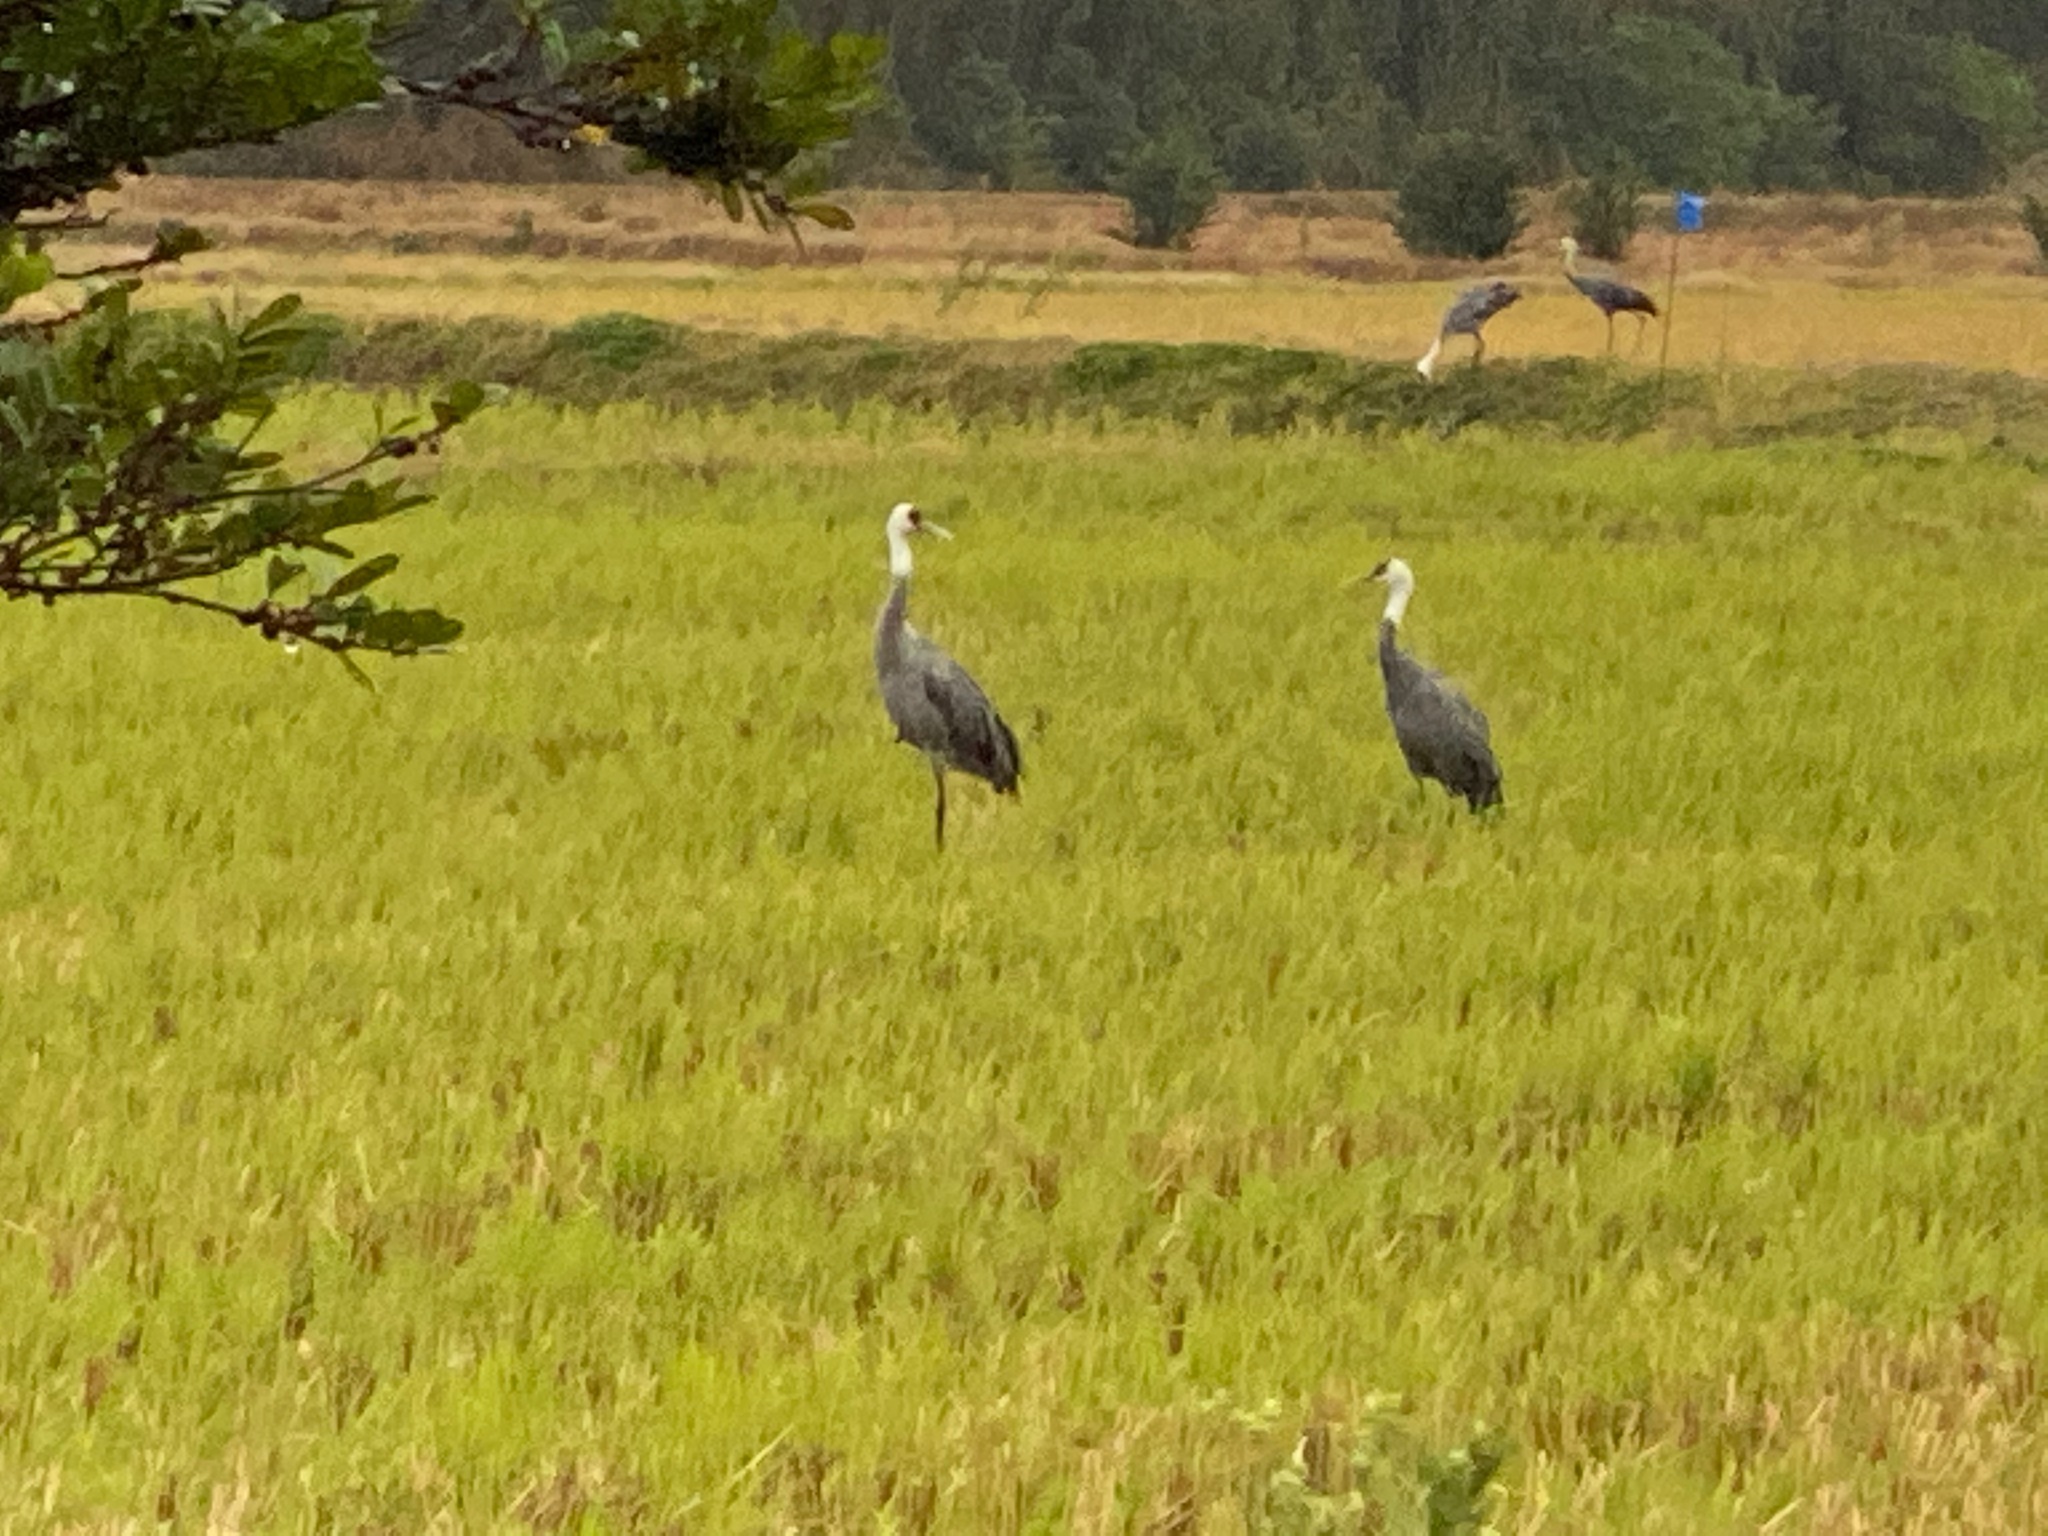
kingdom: Animalia
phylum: Chordata
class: Aves
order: Gruiformes
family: Gruidae
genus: Grus
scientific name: Grus monacha
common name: Hooded crane
